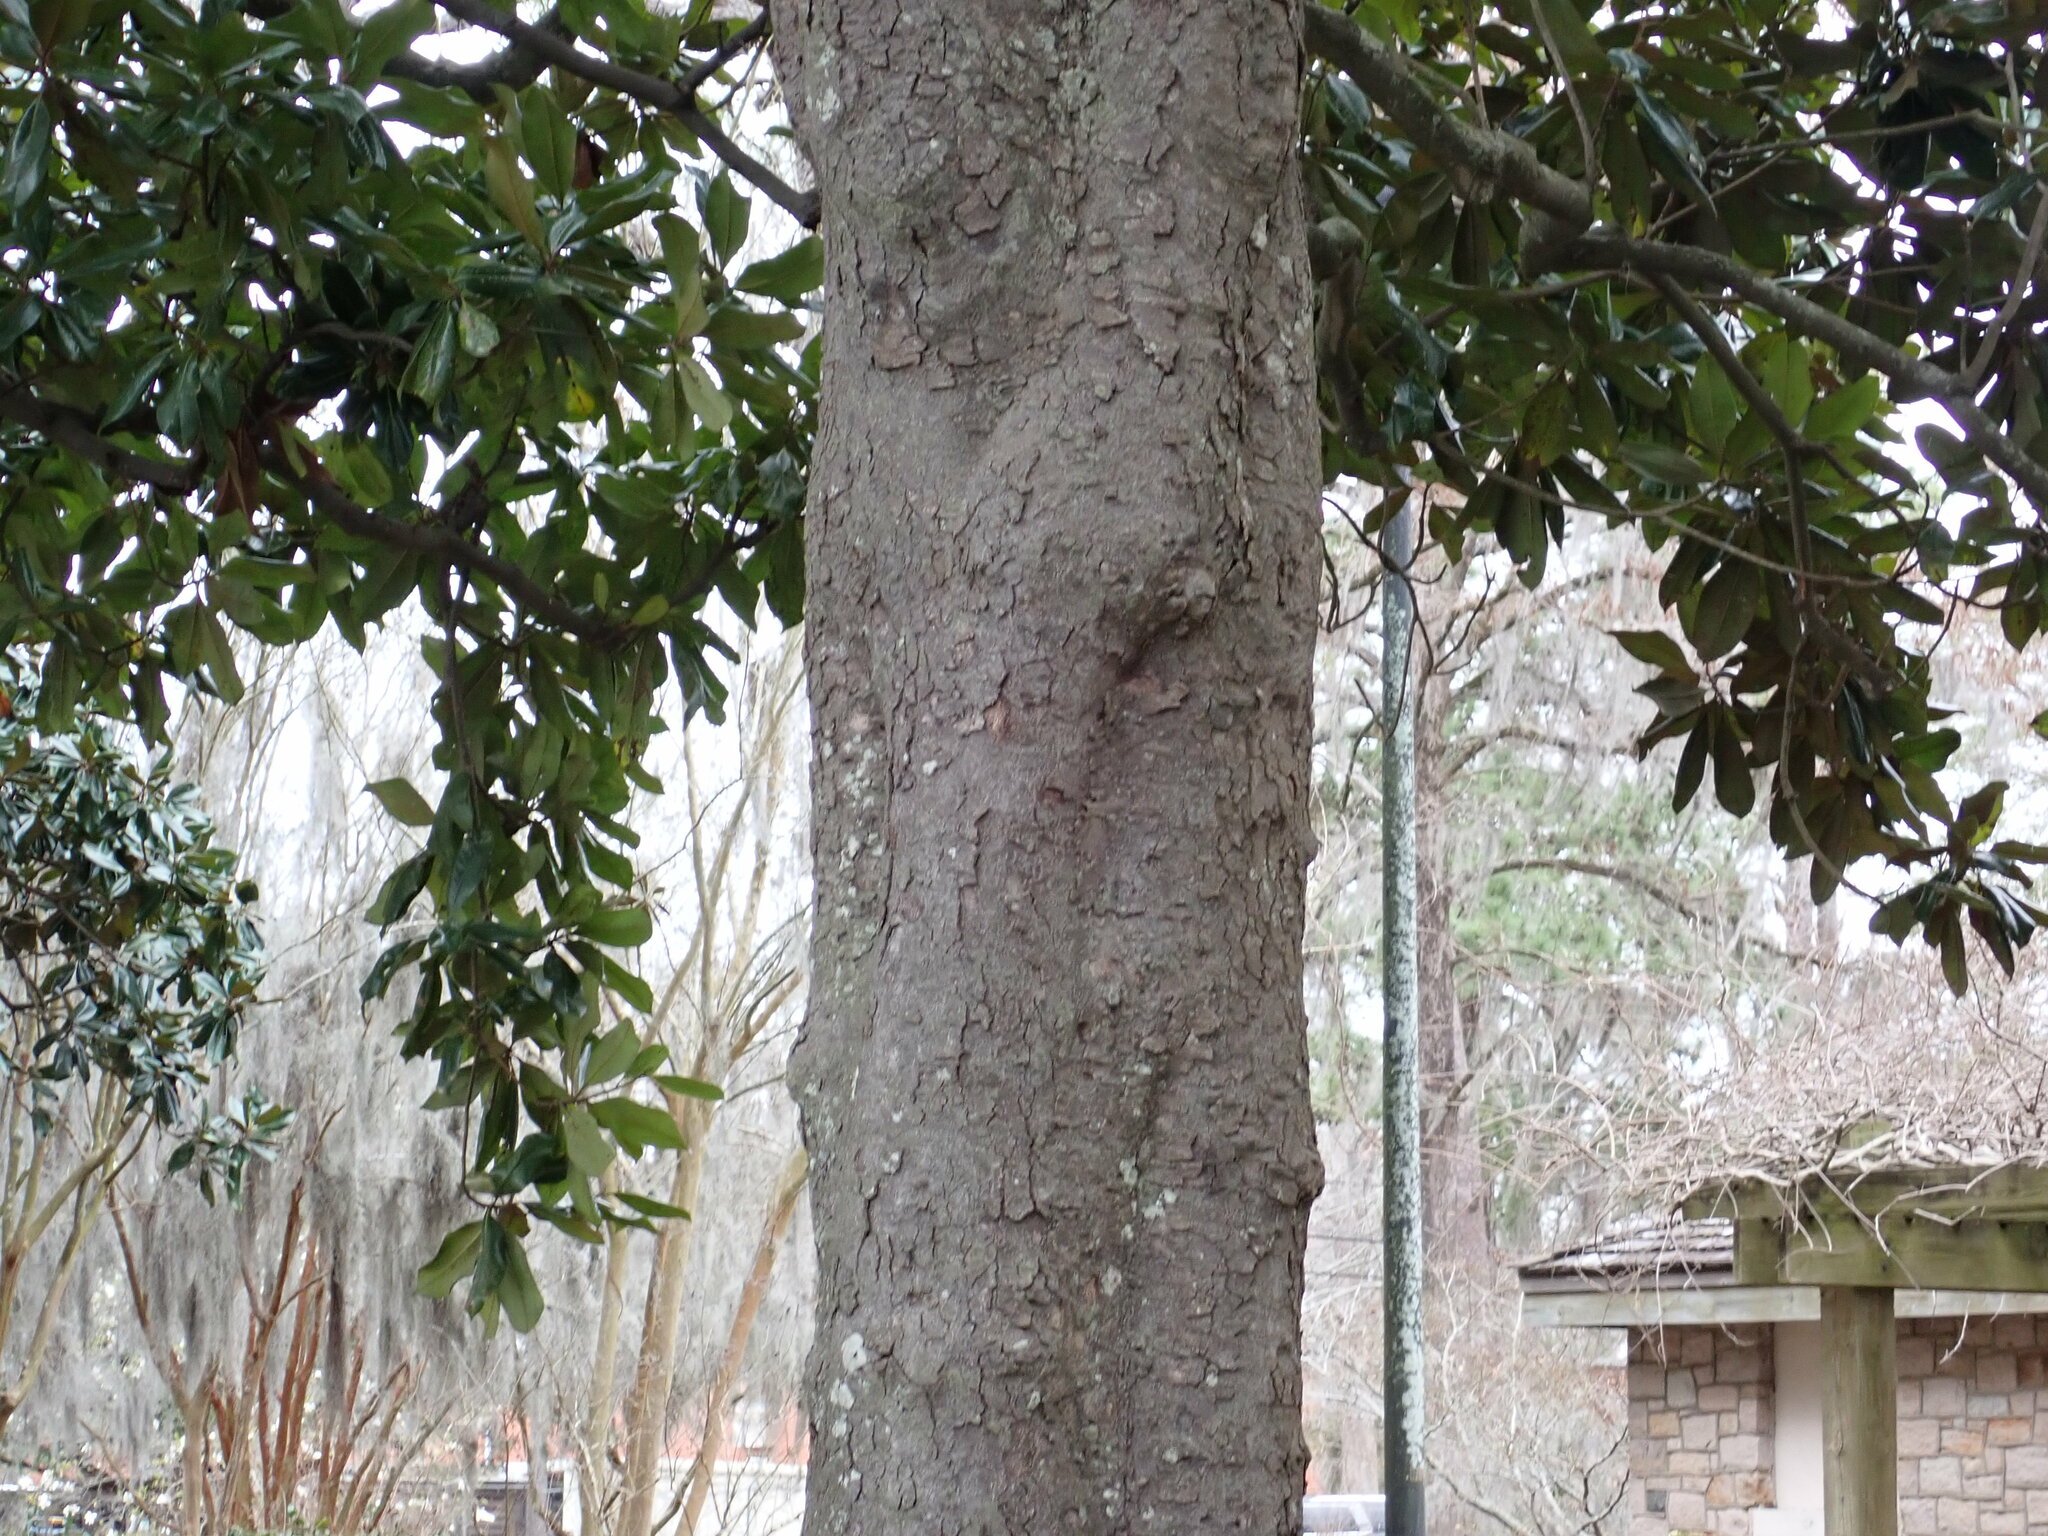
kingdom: Plantae
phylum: Tracheophyta
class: Magnoliopsida
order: Magnoliales
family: Magnoliaceae
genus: Magnolia
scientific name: Magnolia grandiflora
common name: Southern magnolia
